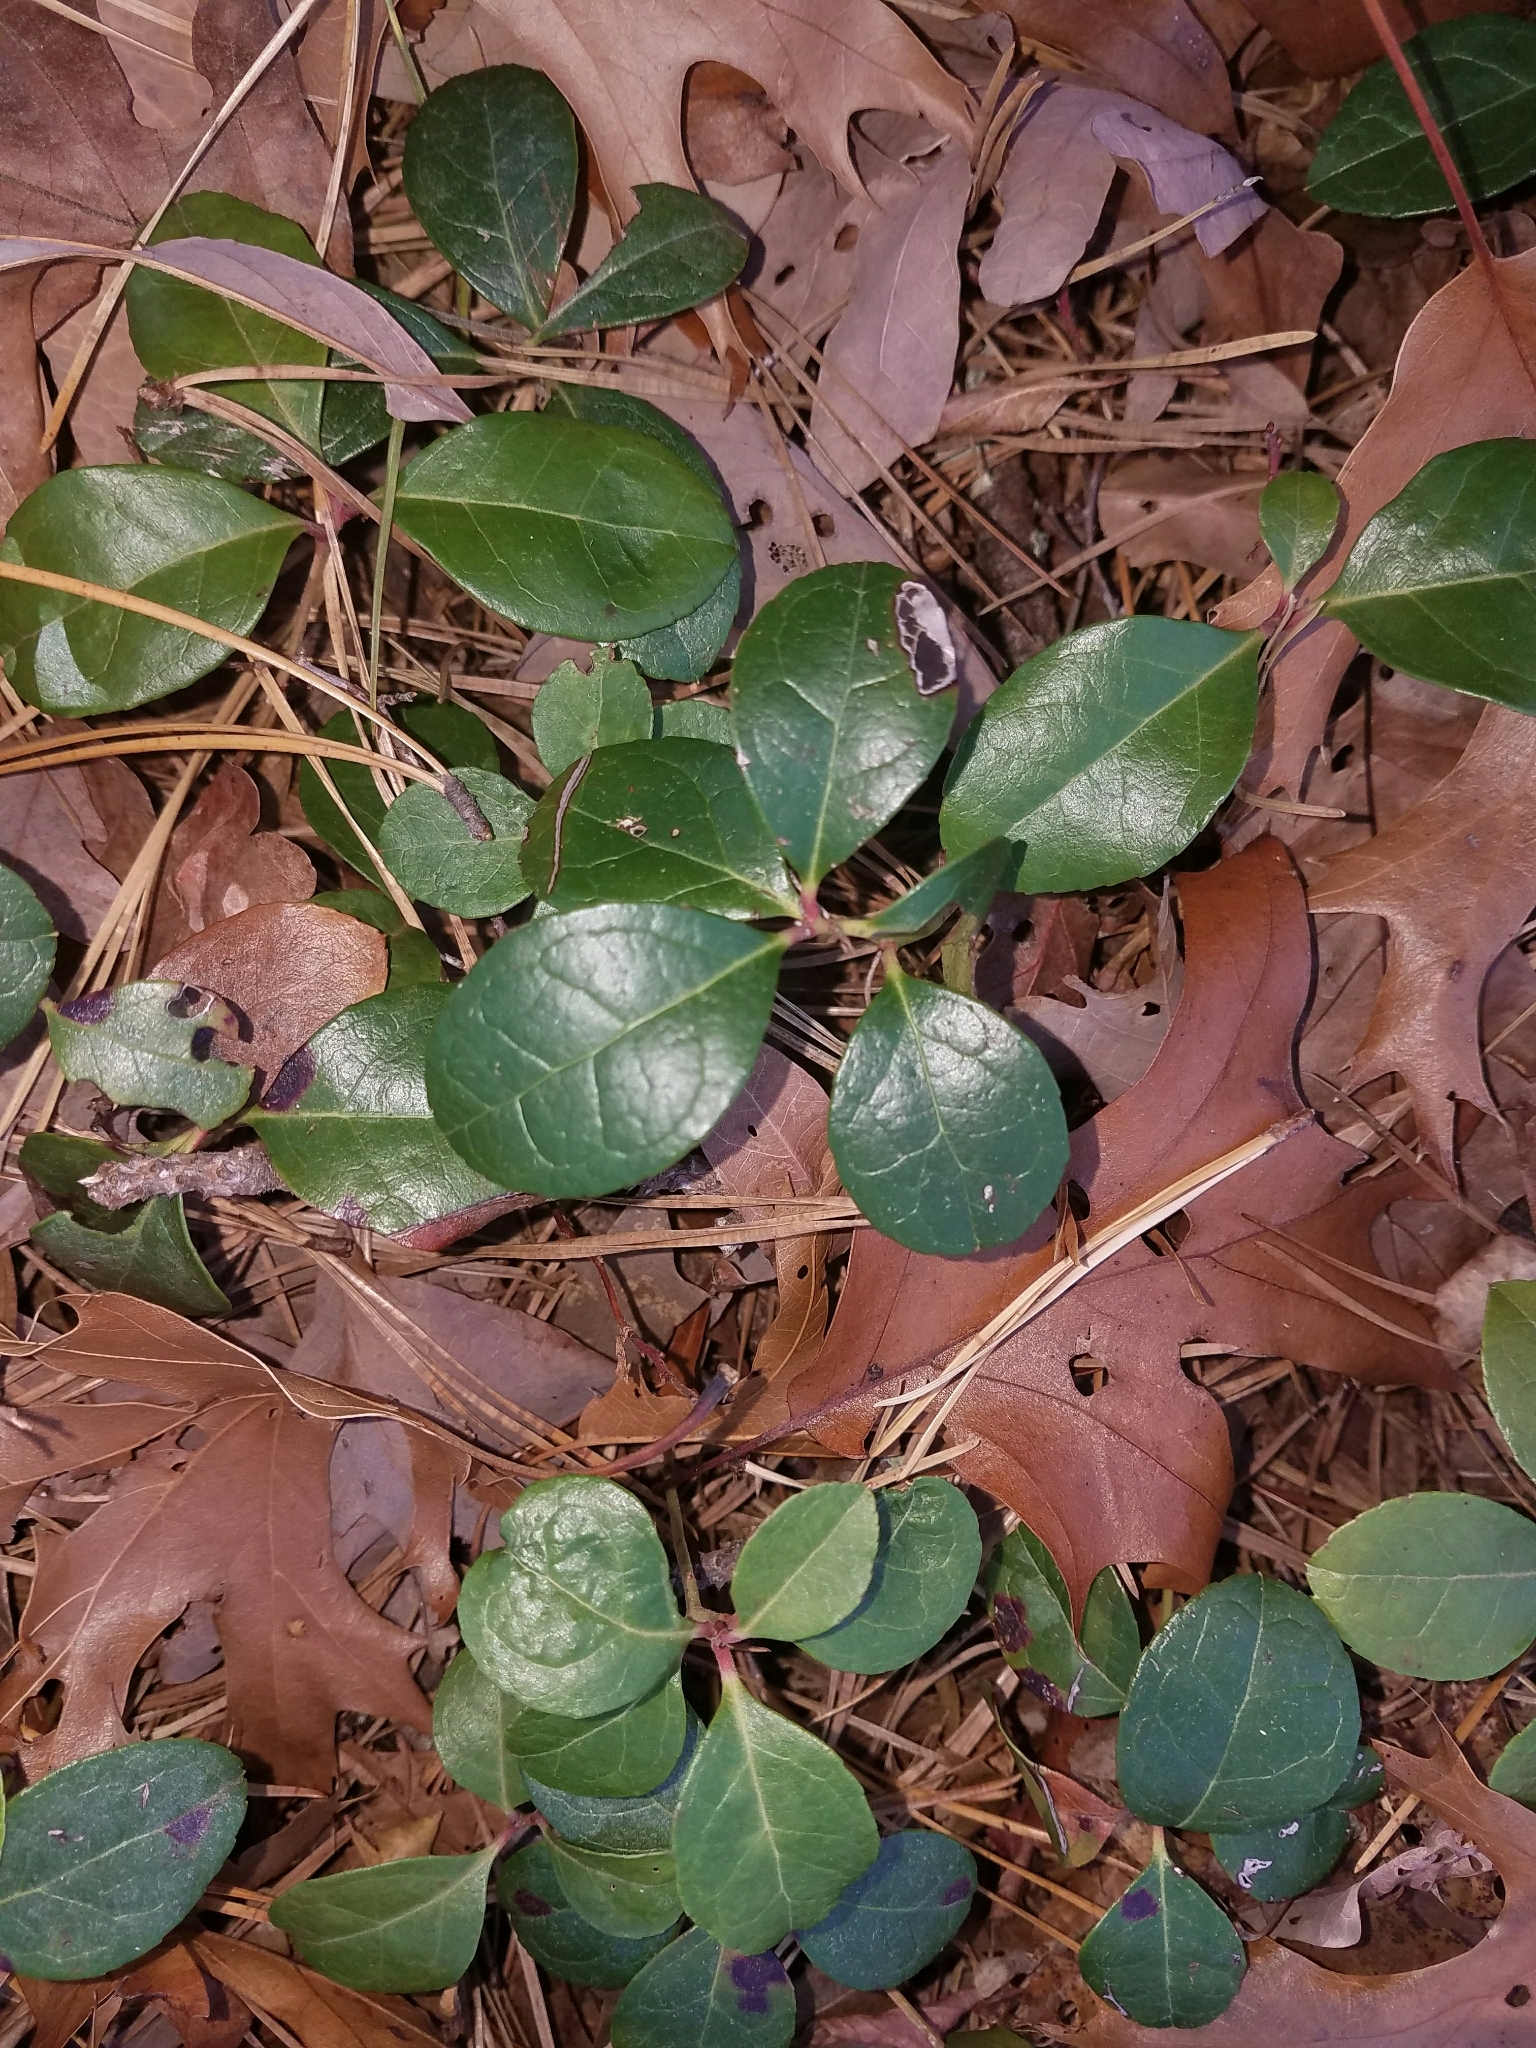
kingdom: Plantae
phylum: Tracheophyta
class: Magnoliopsida
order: Ericales
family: Ericaceae
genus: Gaultheria
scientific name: Gaultheria procumbens
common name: Checkerberry
